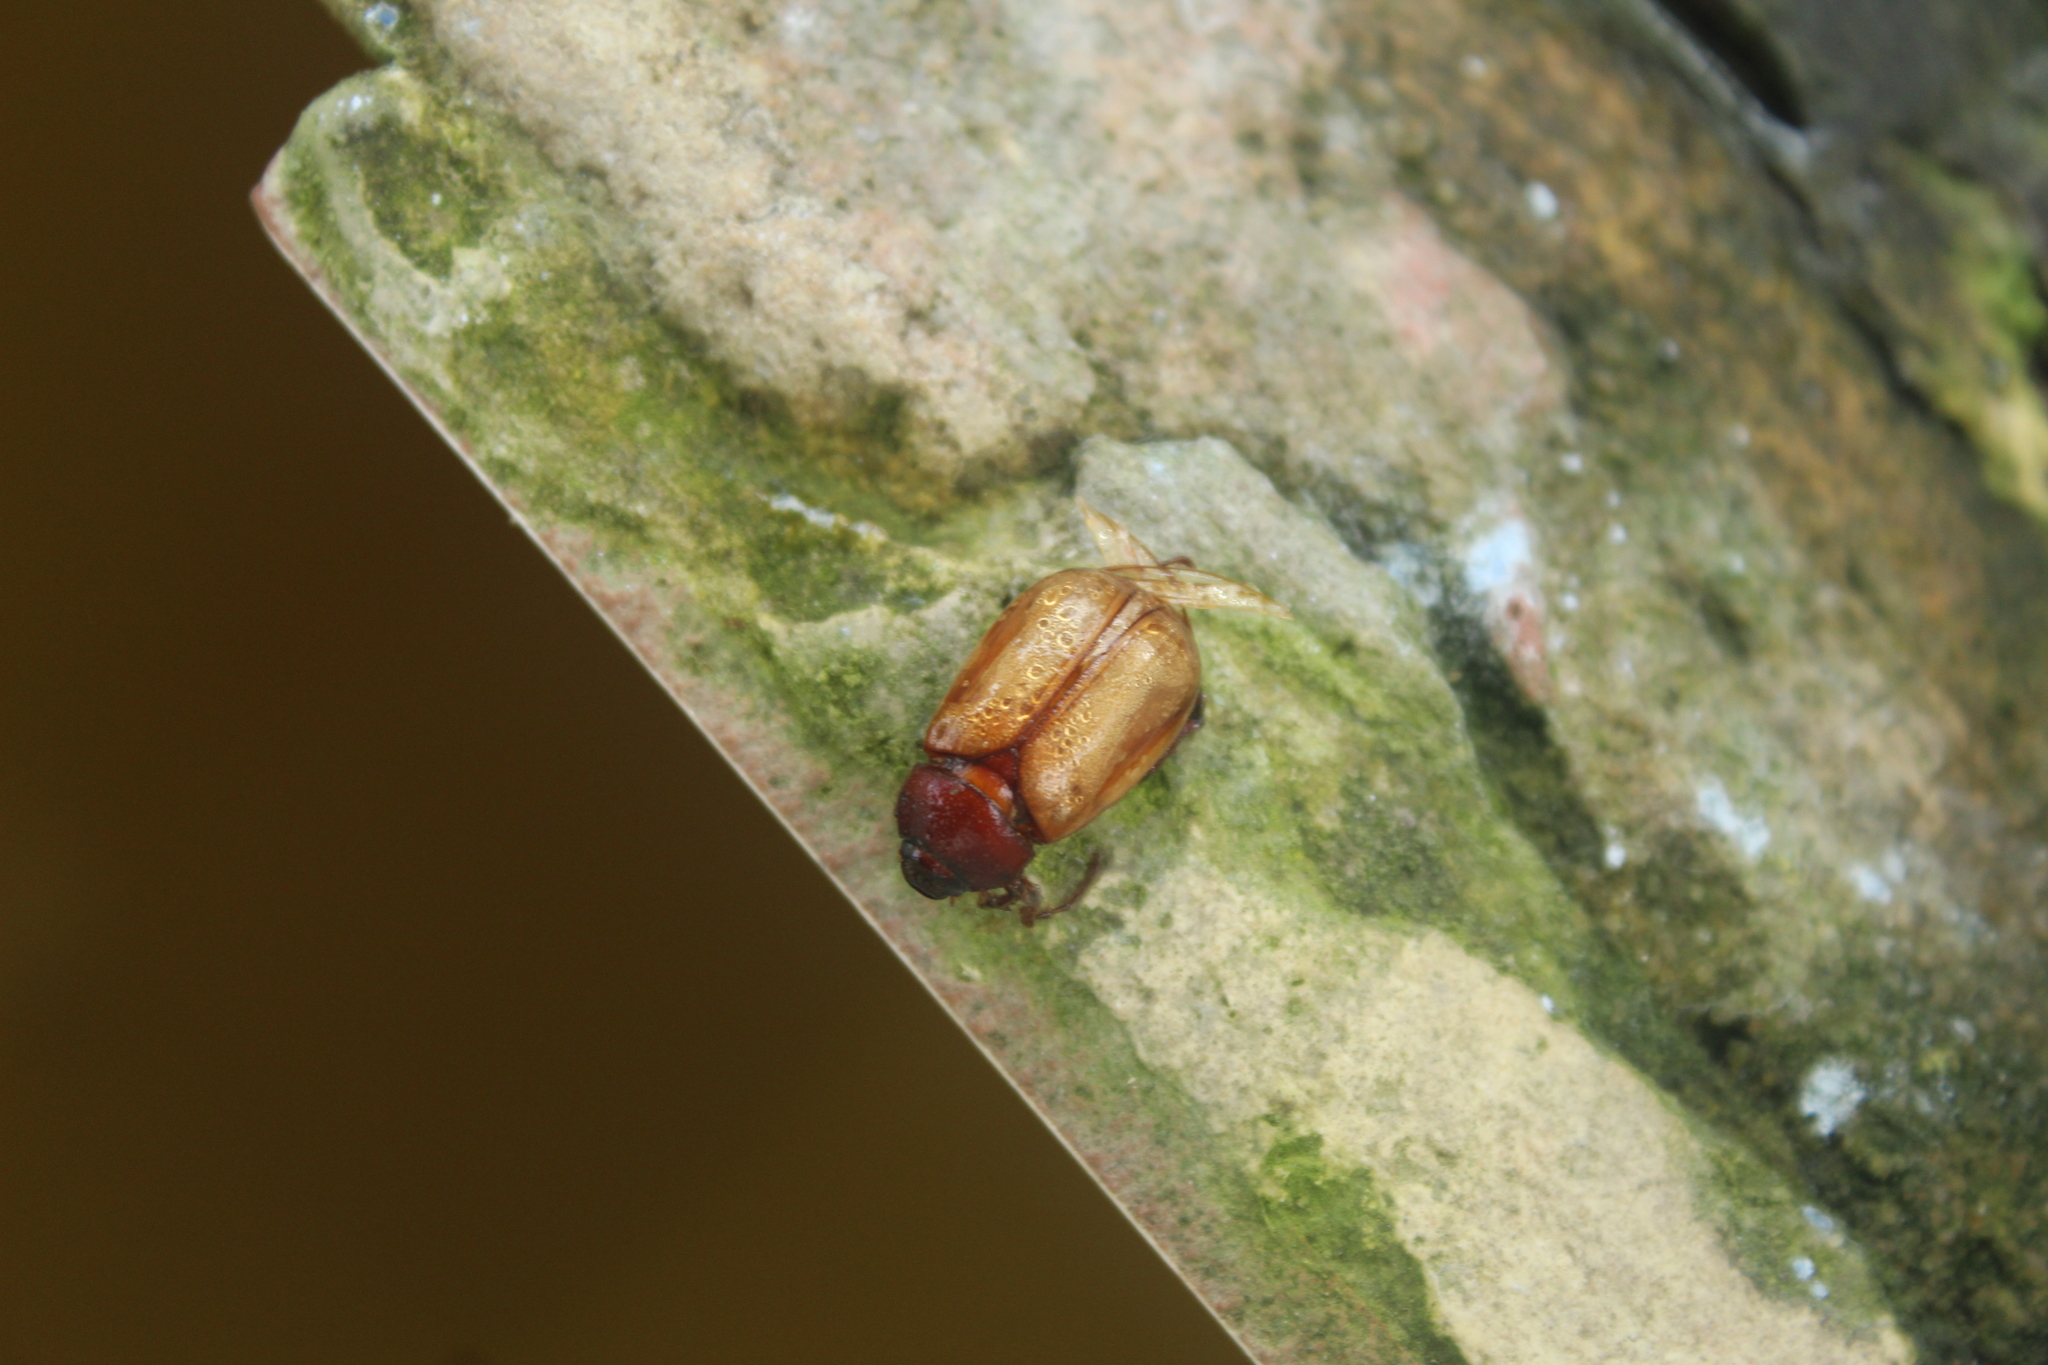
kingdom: Animalia
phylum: Arthropoda
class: Insecta
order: Coleoptera
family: Scarabaeidae
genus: Phyllophaga
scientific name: Phyllophaga
